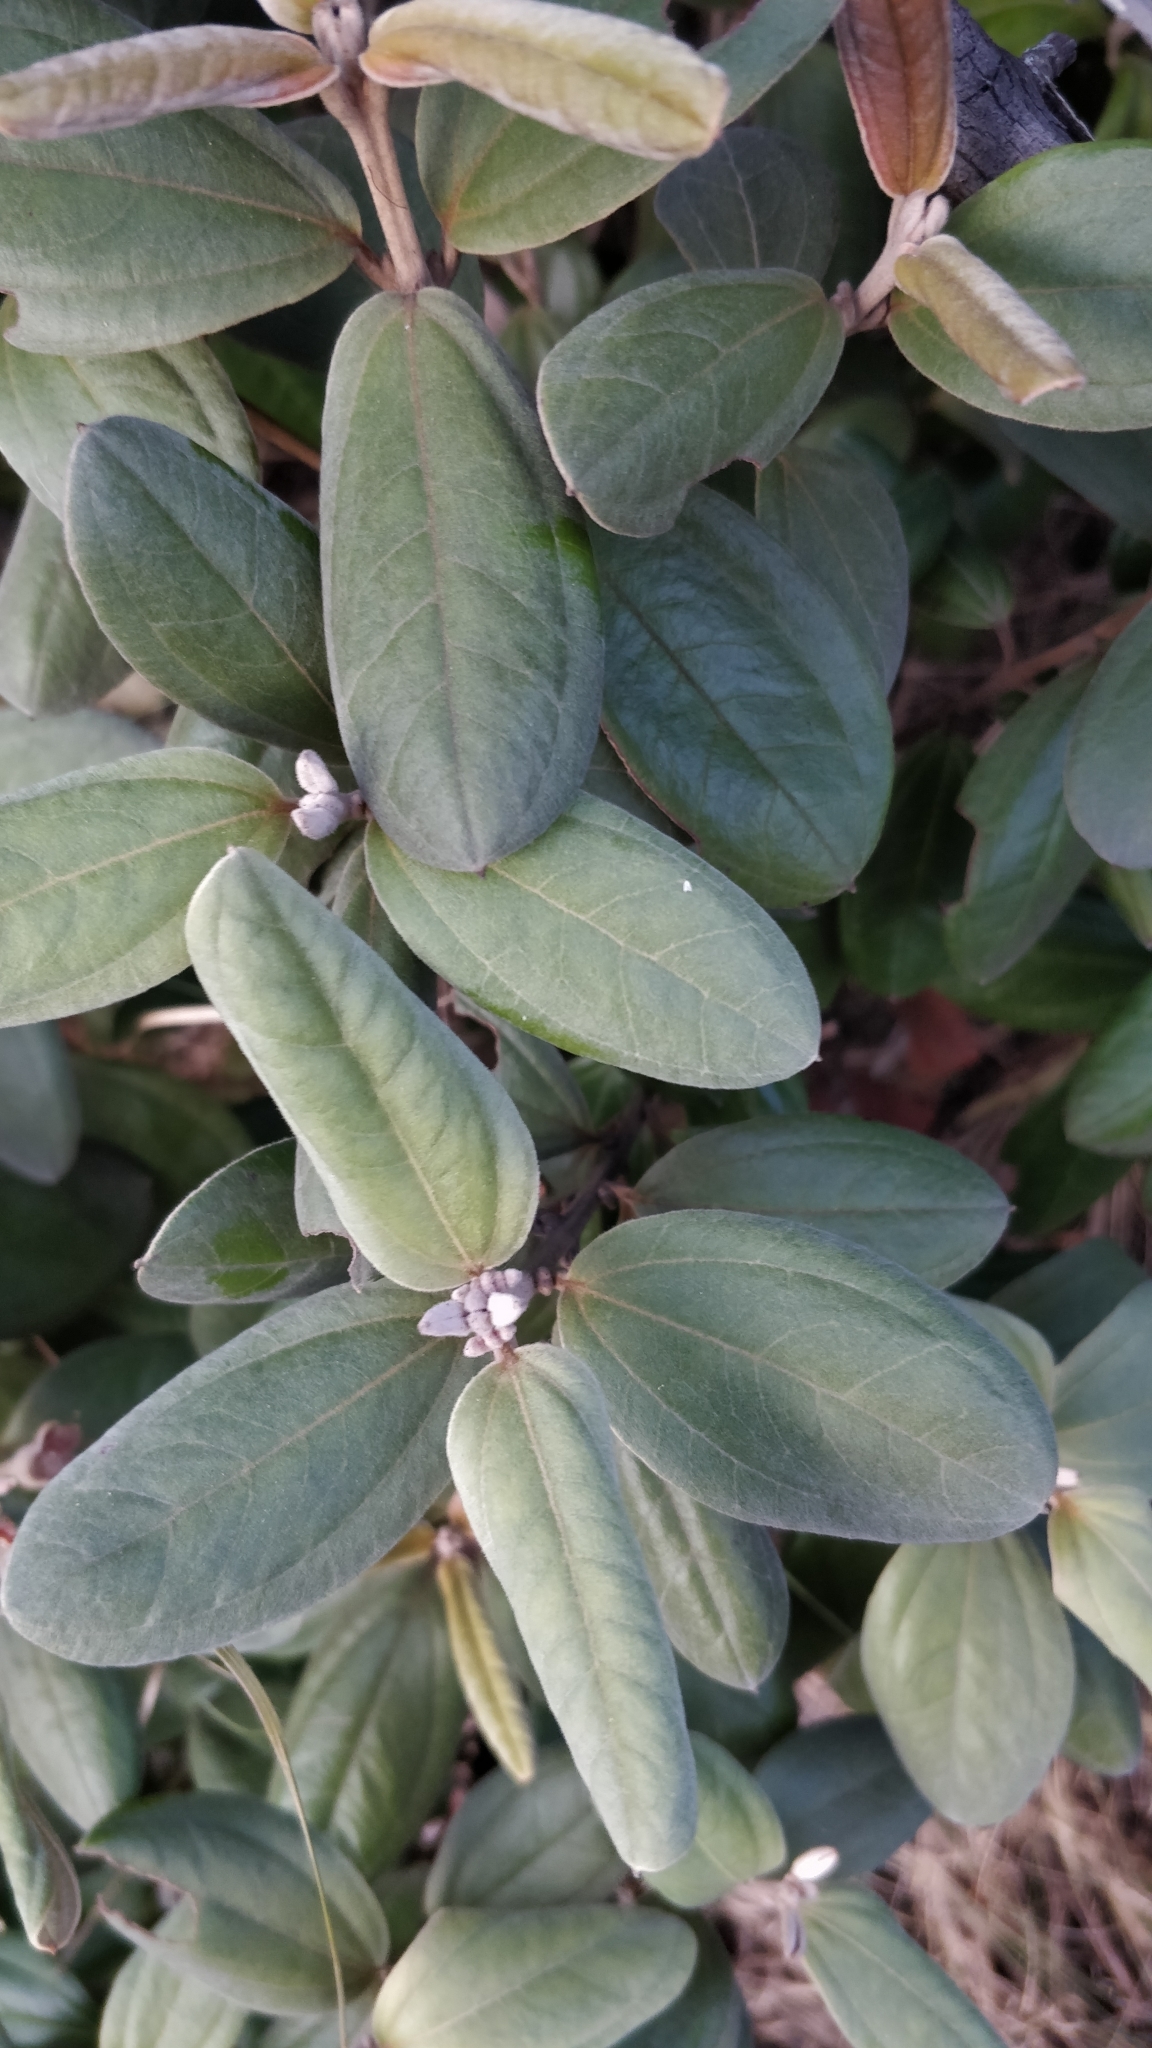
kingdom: Plantae
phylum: Tracheophyta
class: Magnoliopsida
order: Myrtales
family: Myrtaceae
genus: Rhodomyrtus
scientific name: Rhodomyrtus tomentosa
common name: Rose myrtle
